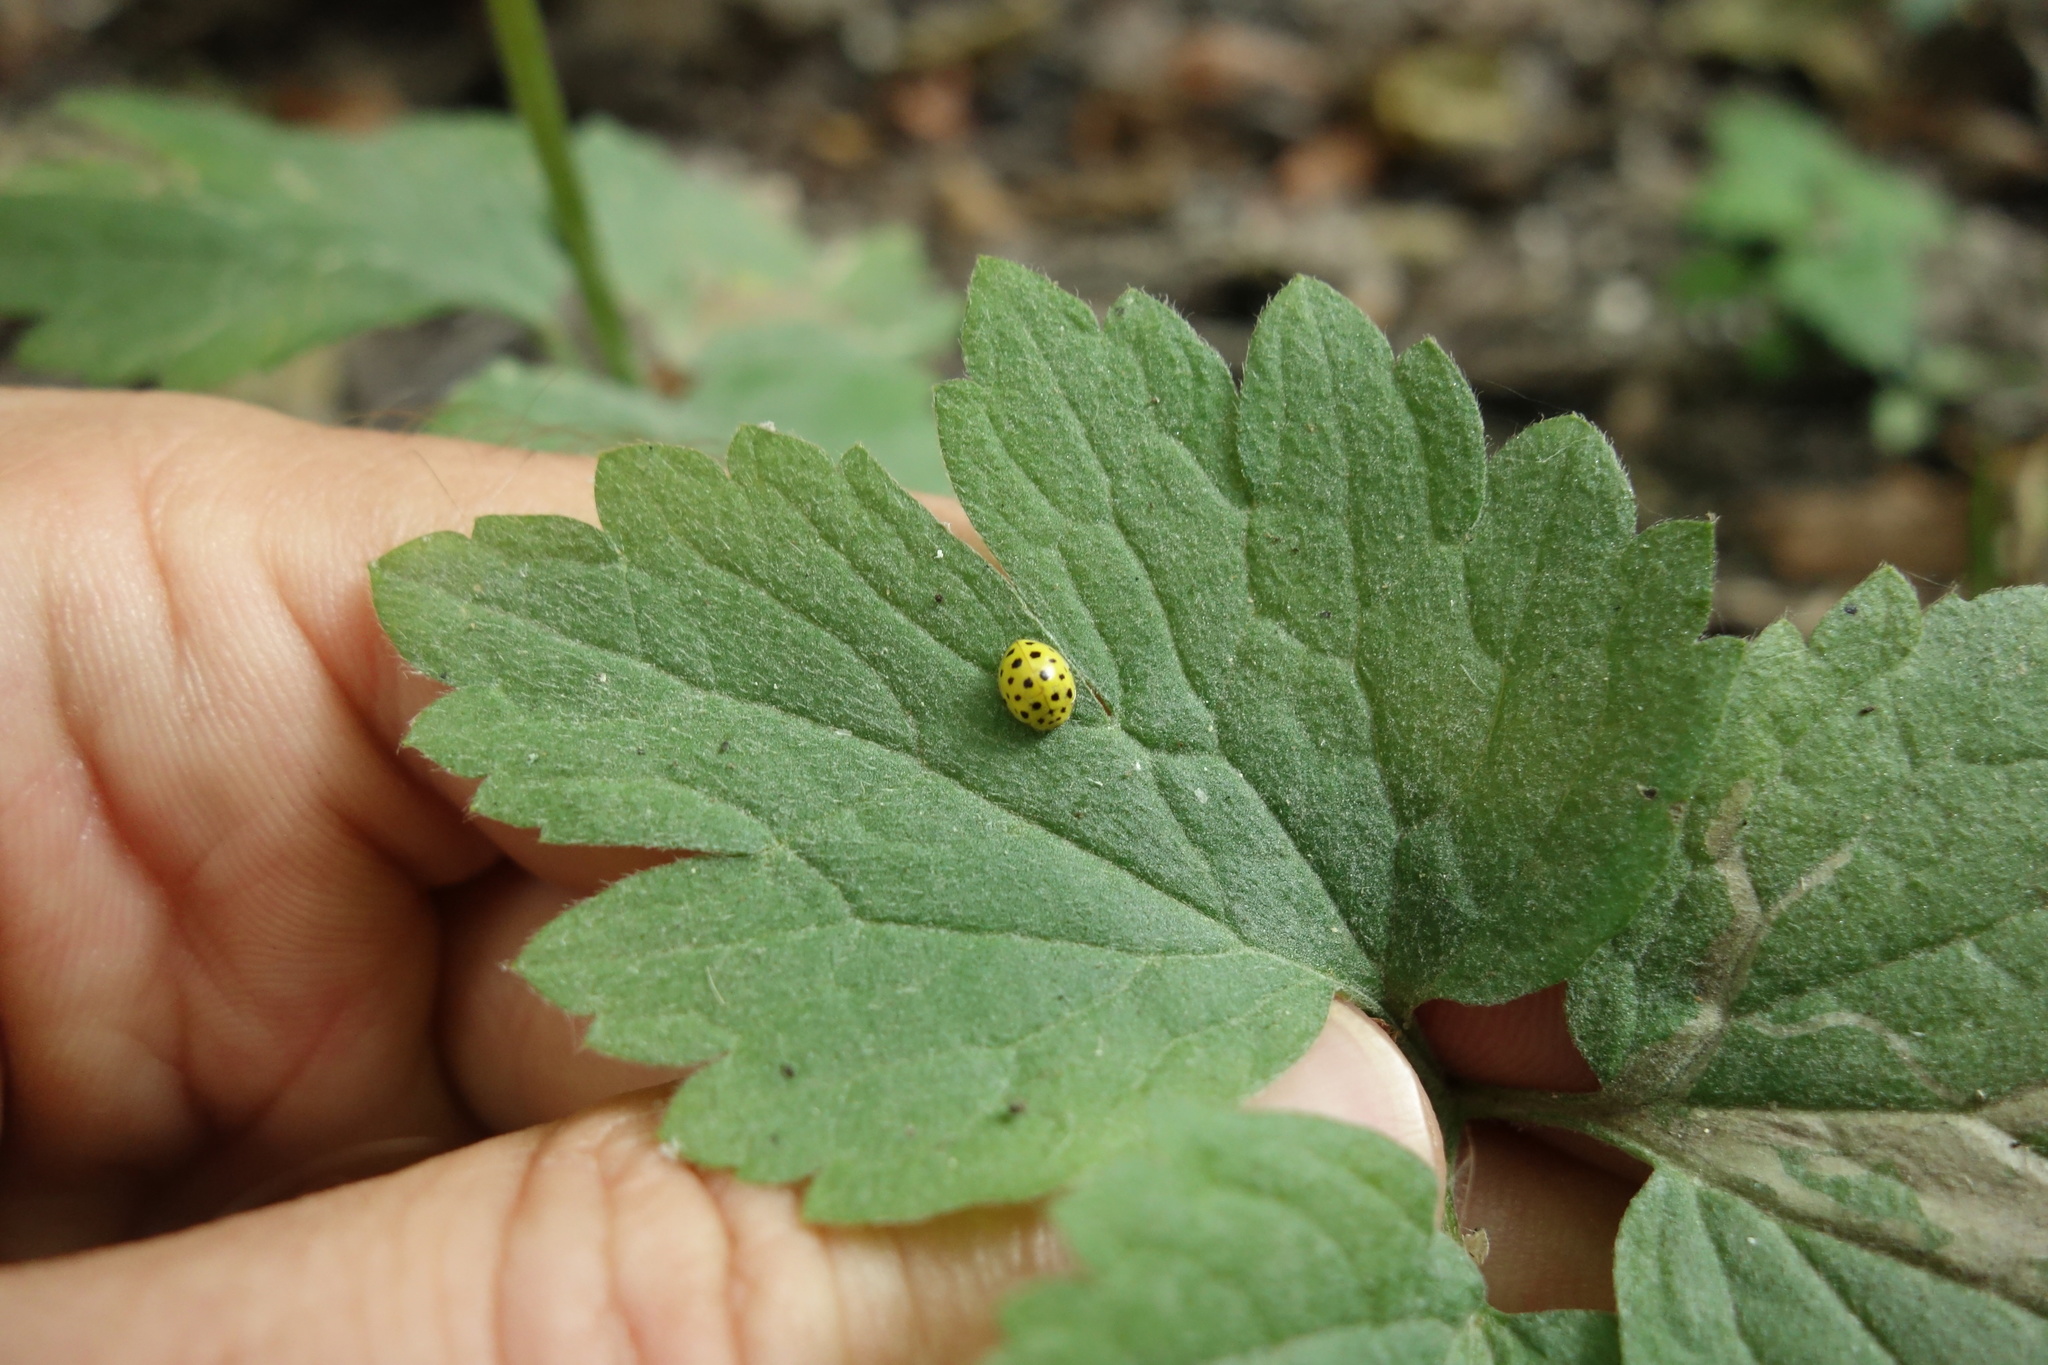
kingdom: Animalia
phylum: Arthropoda
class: Insecta
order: Coleoptera
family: Coccinellidae
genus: Psyllobora
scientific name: Psyllobora vigintiduopunctata
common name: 22-spot ladybird
